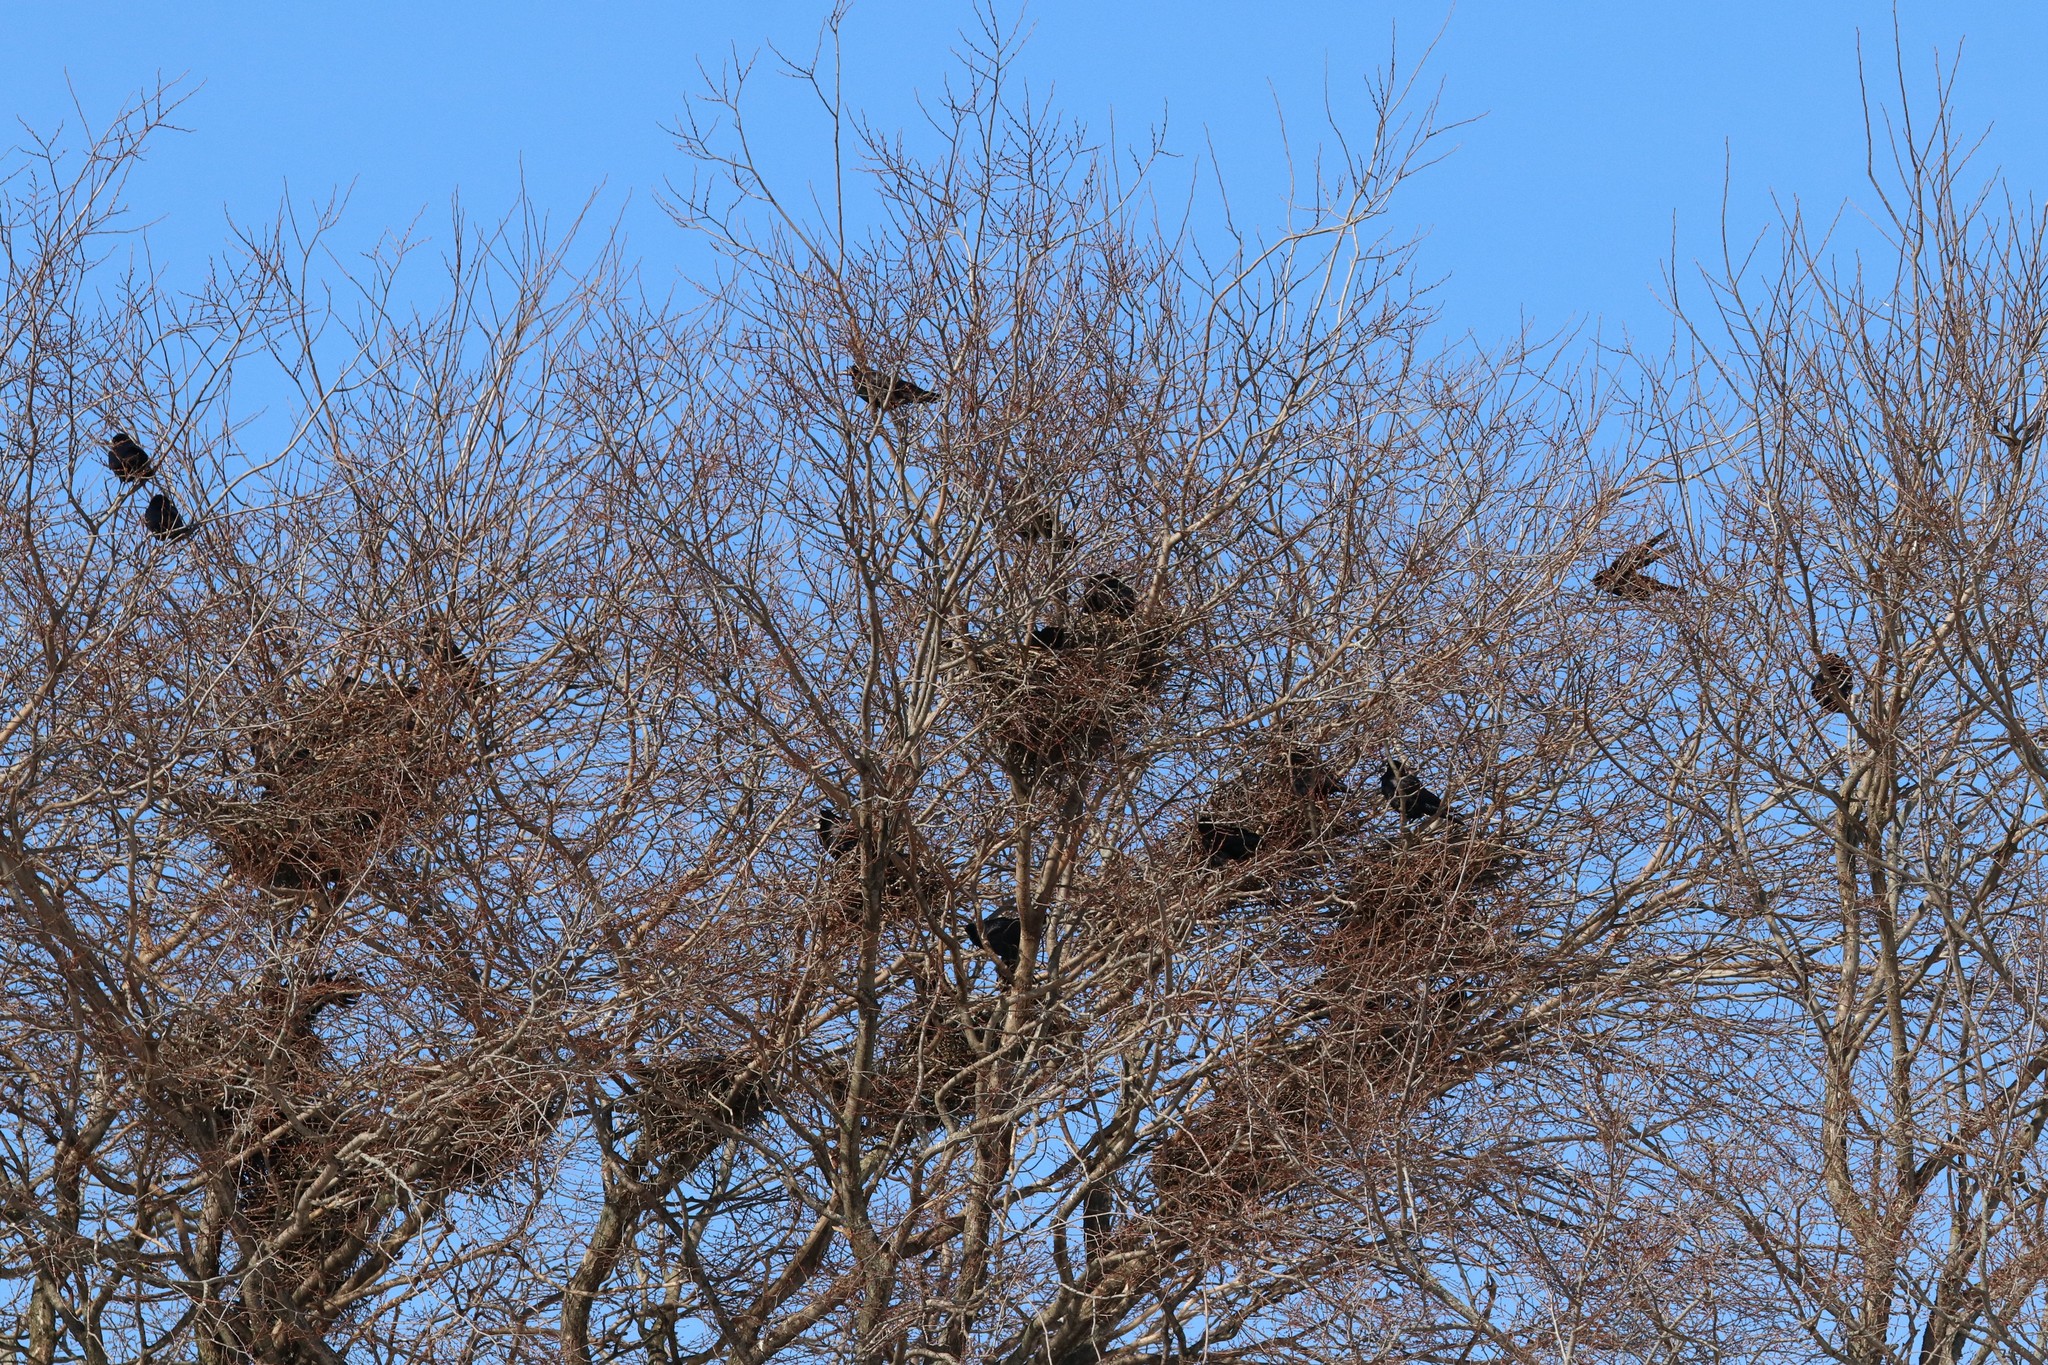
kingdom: Animalia
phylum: Chordata
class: Aves
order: Passeriformes
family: Corvidae
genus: Corvus
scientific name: Corvus frugilegus
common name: Rook
